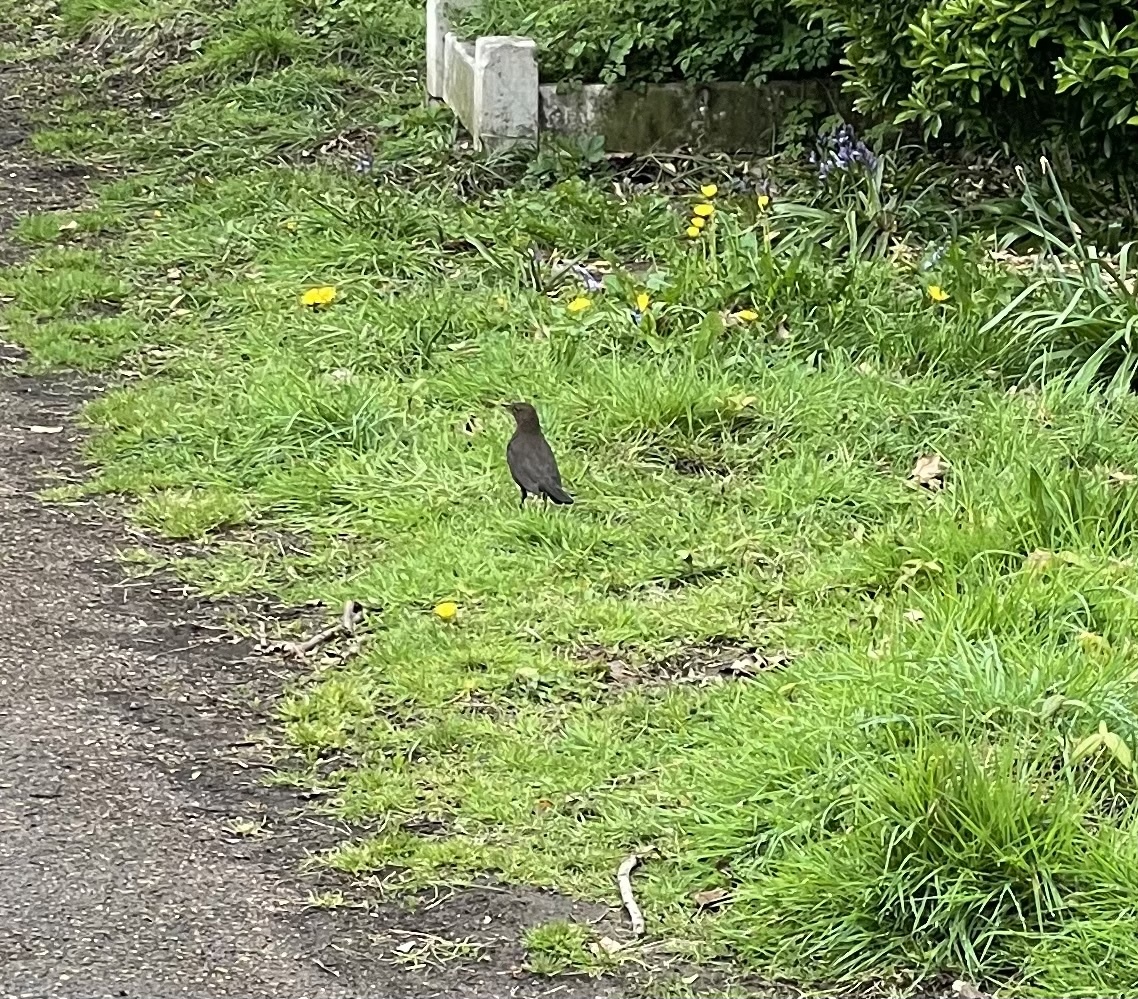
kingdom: Animalia
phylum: Chordata
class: Aves
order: Passeriformes
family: Turdidae
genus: Turdus
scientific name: Turdus merula
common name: Common blackbird
